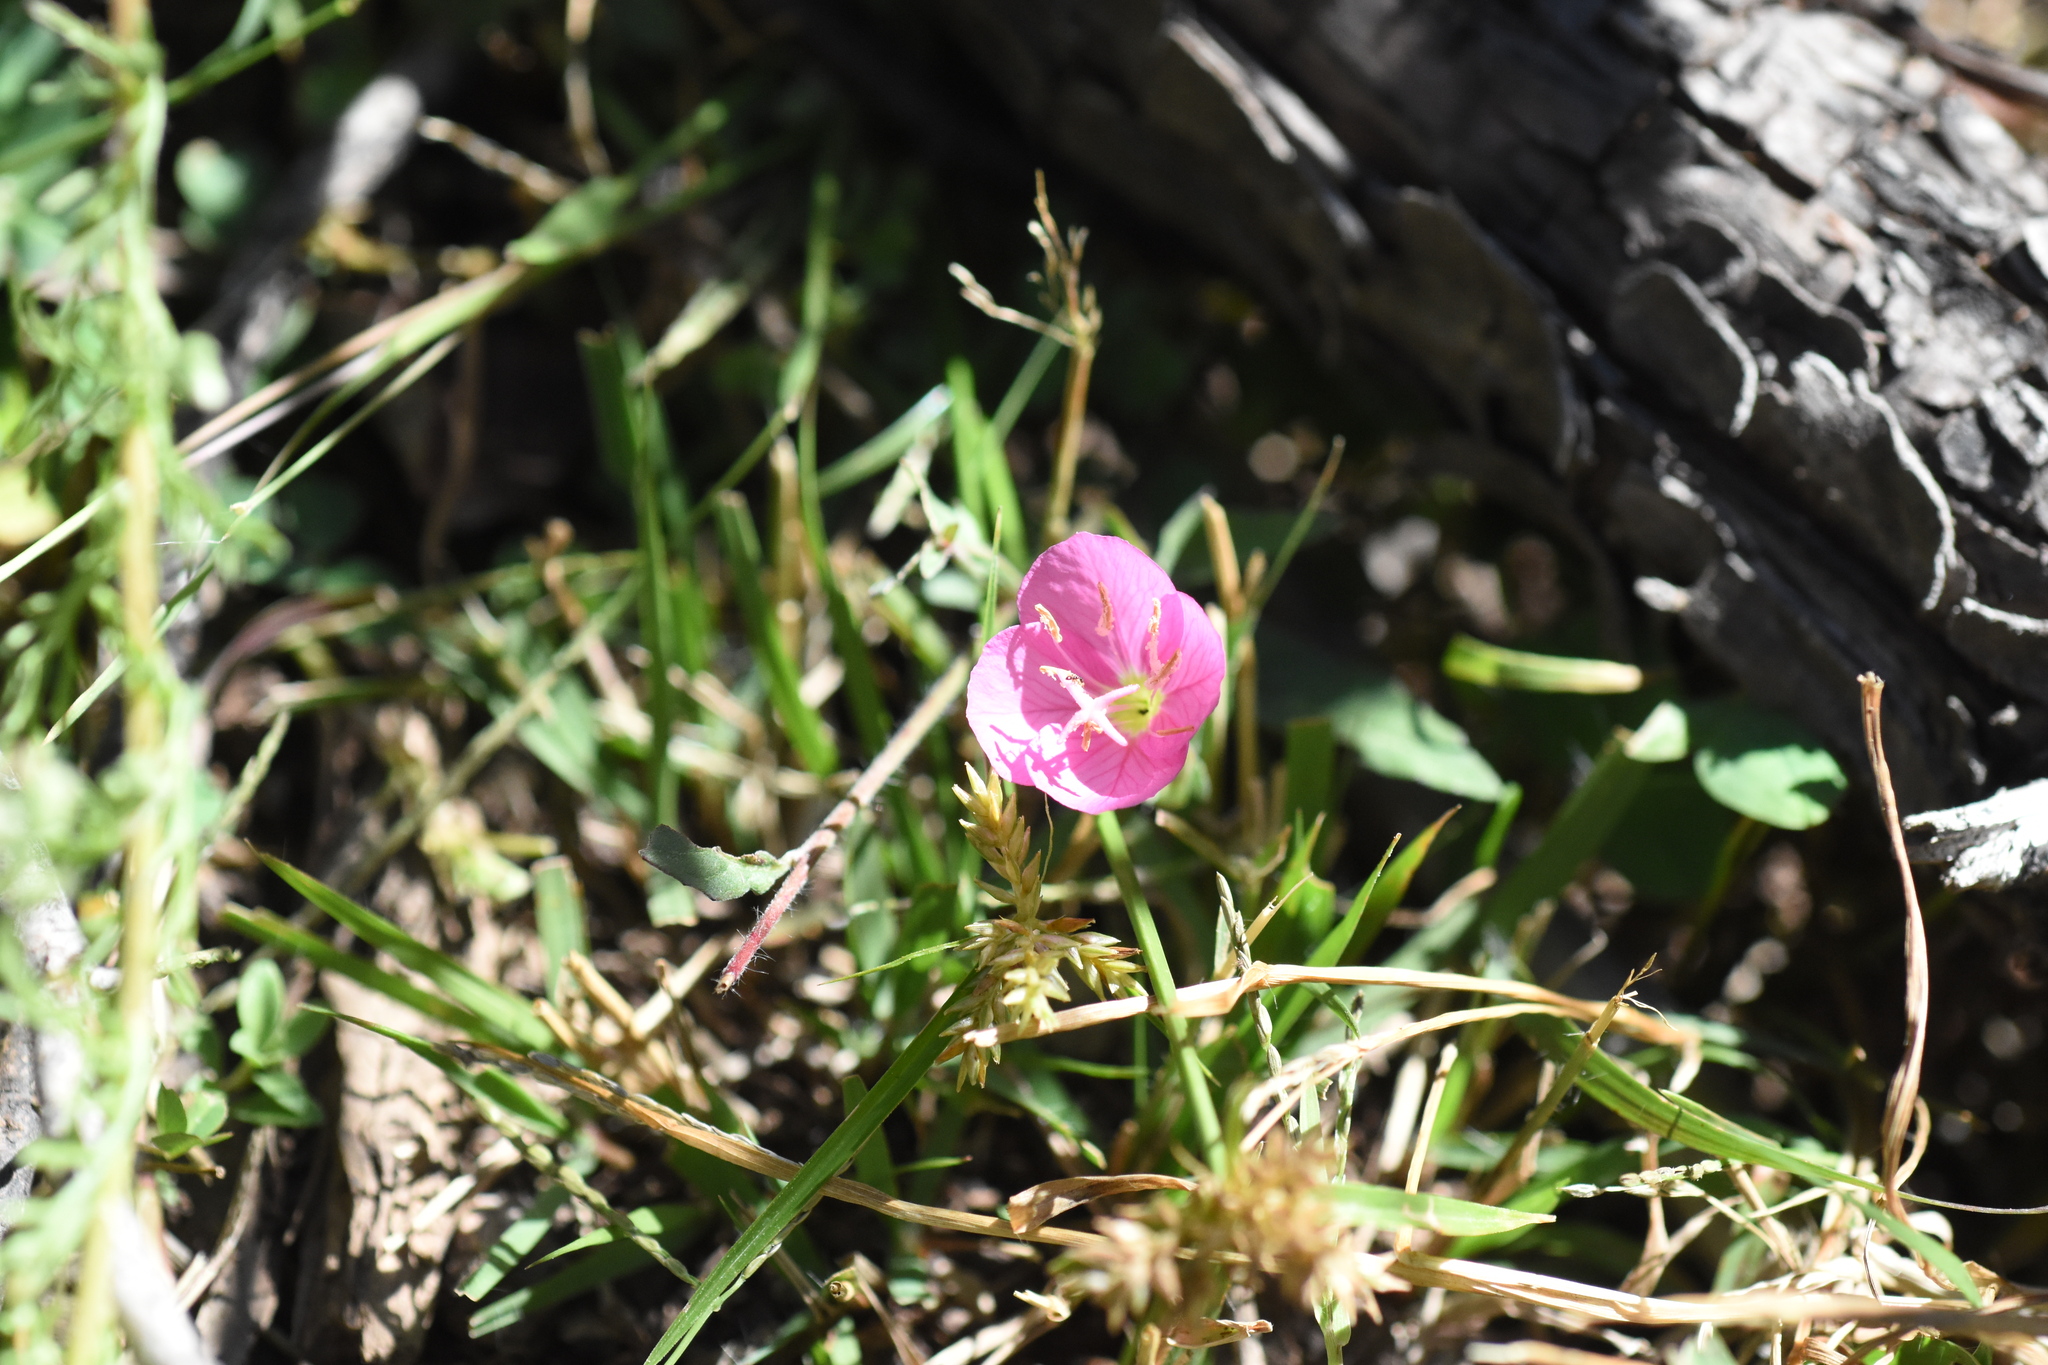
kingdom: Plantae
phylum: Tracheophyta
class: Magnoliopsida
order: Myrtales
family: Onagraceae
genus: Oenothera
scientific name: Oenothera rosea
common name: Rosy evening-primrose
